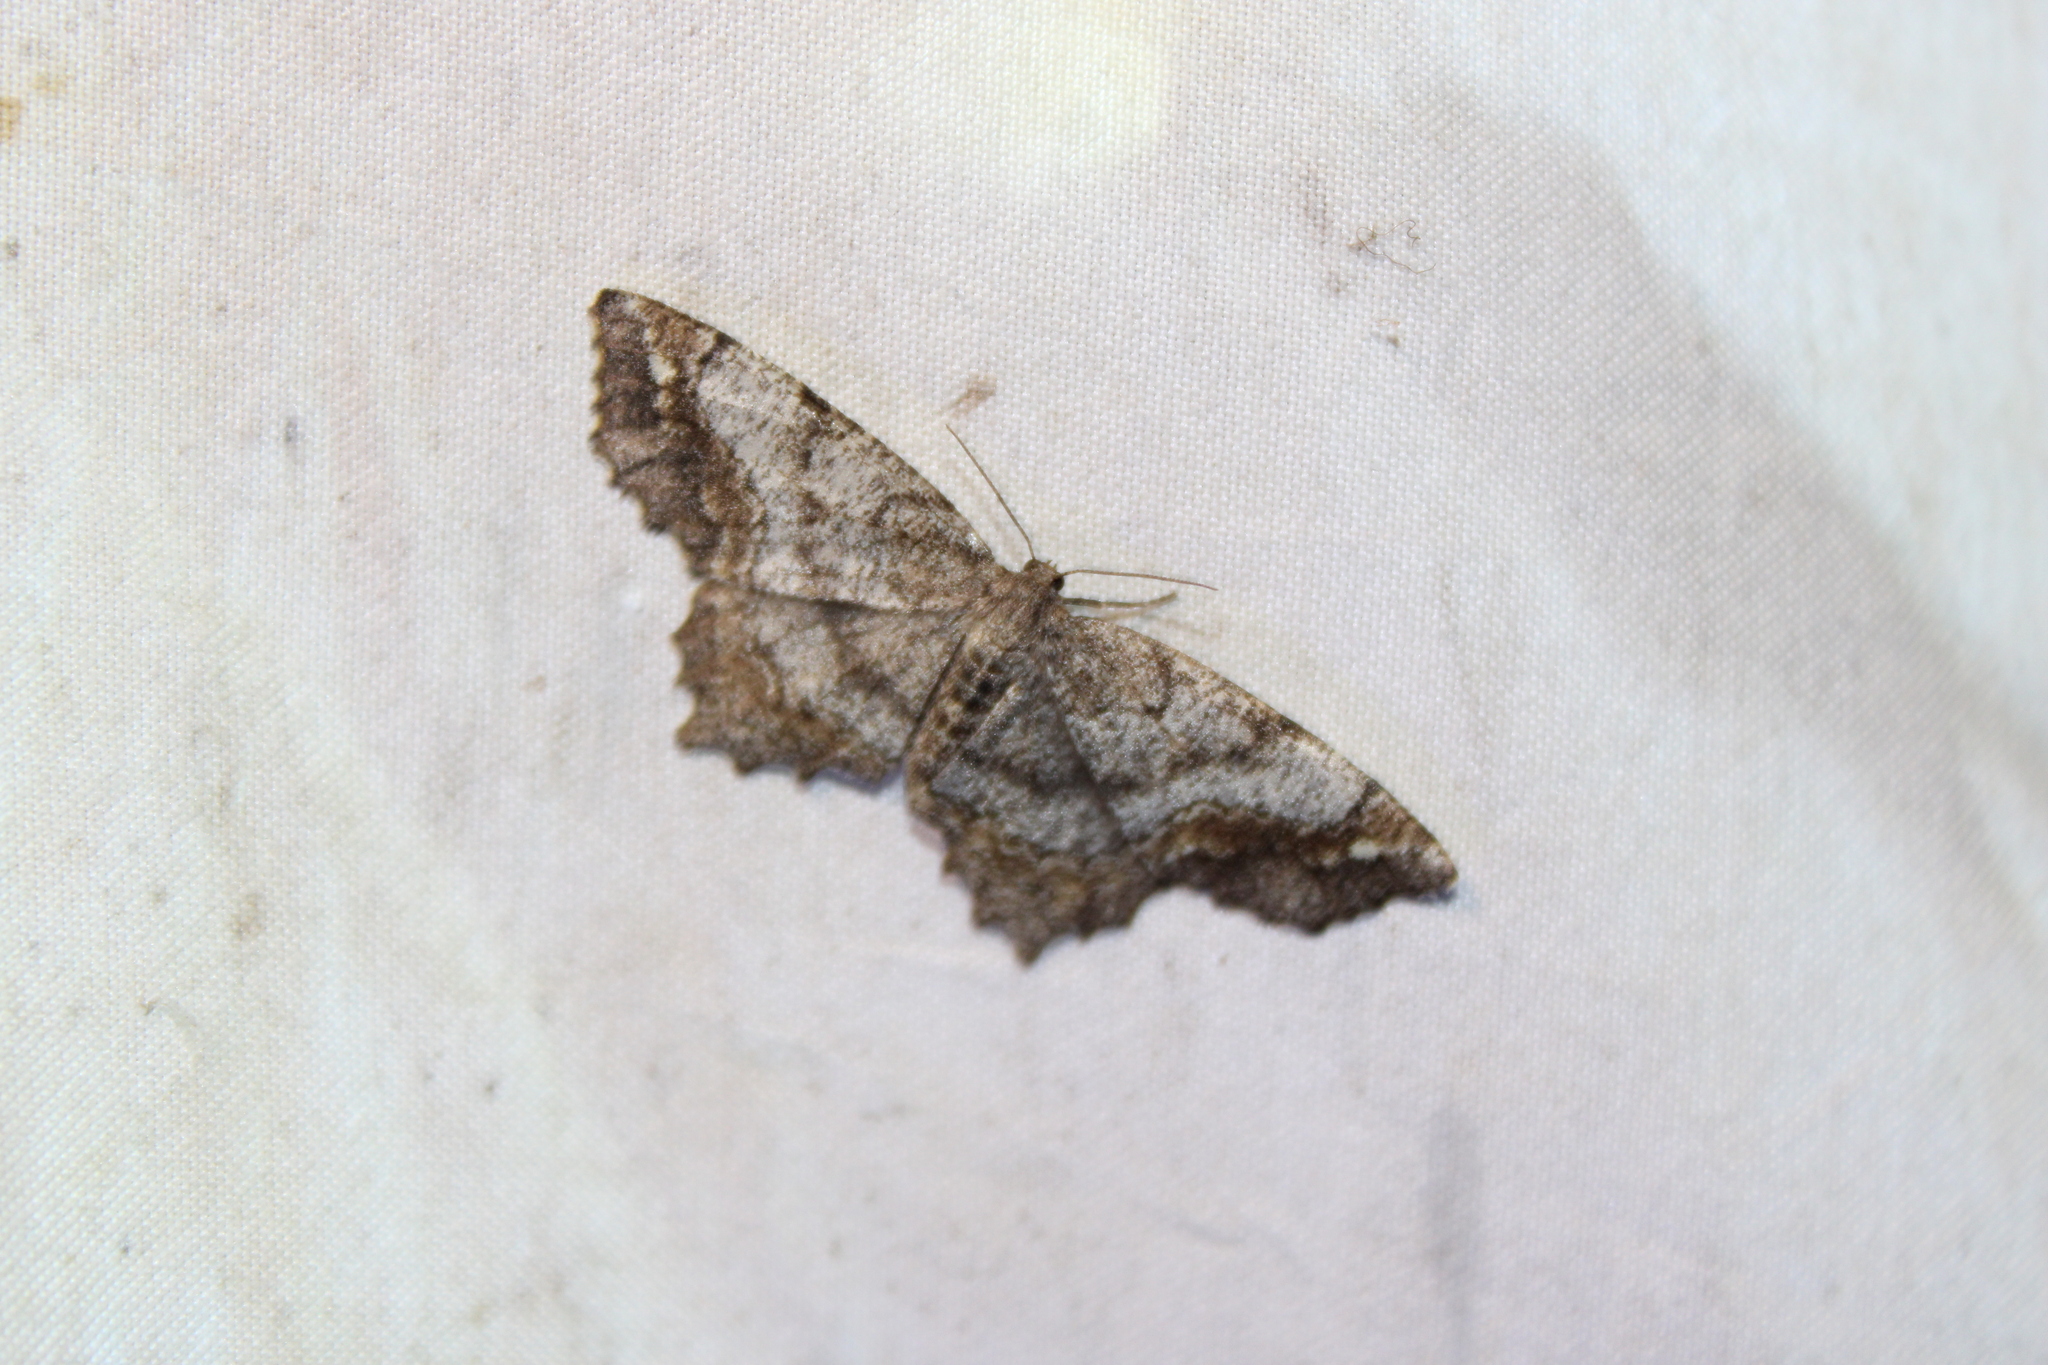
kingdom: Animalia
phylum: Arthropoda
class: Insecta
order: Lepidoptera
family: Geometridae
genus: Hypagyrtis
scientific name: Hypagyrtis unipunctata
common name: One-spotted variant
